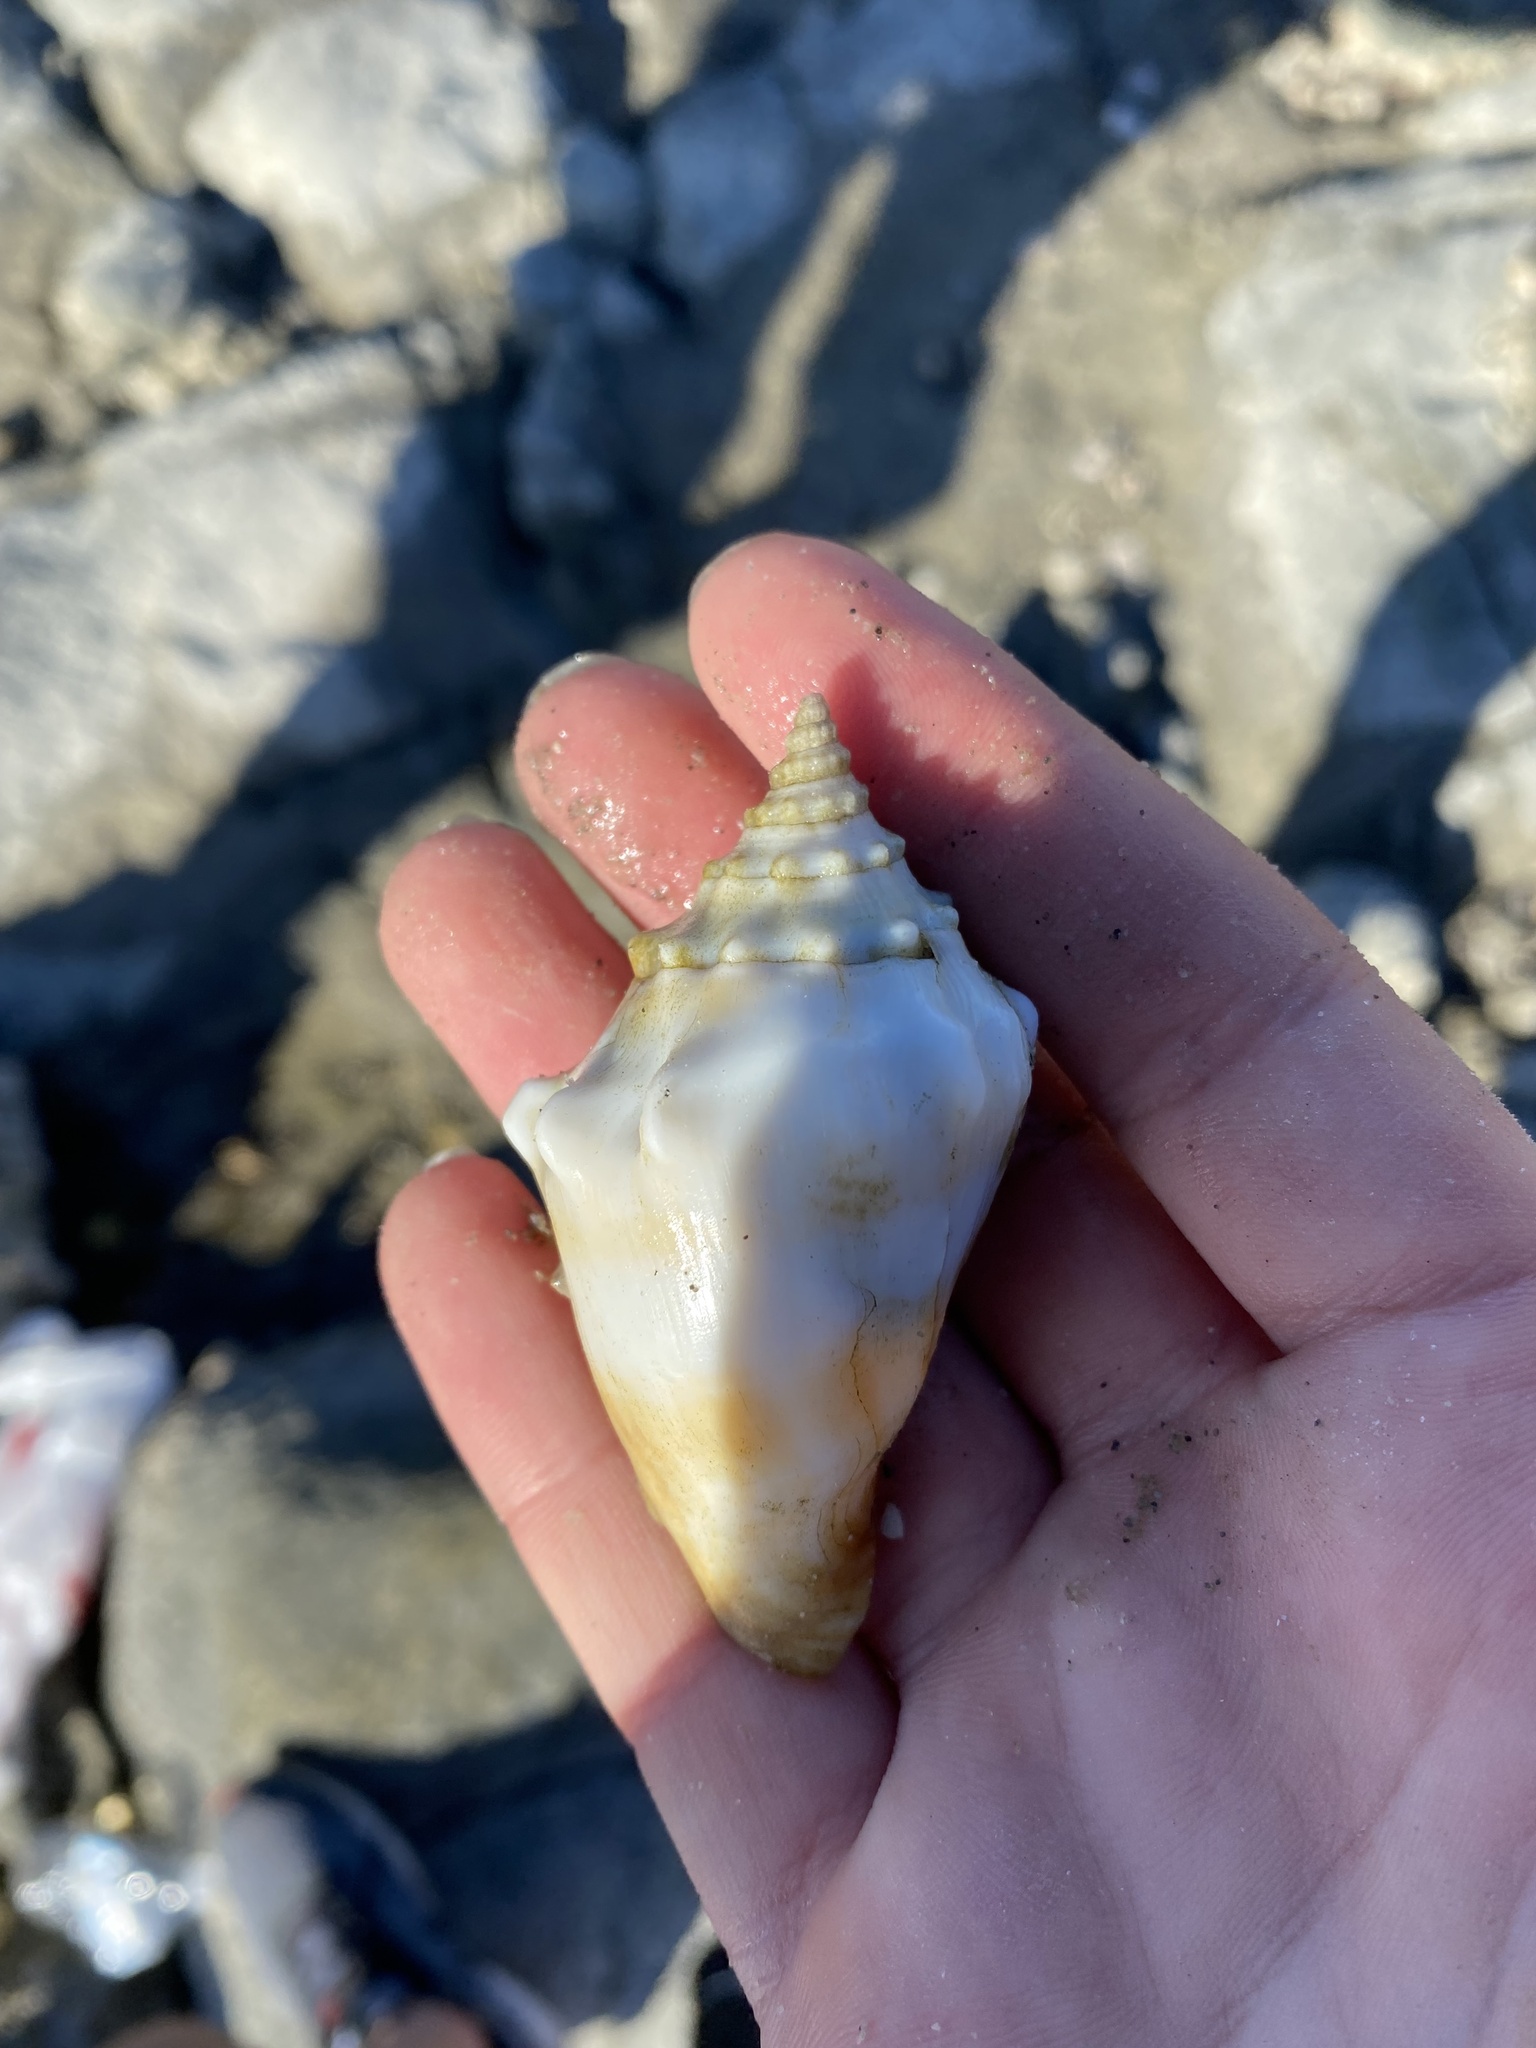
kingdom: Animalia
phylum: Mollusca
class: Gastropoda
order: Littorinimorpha
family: Strombidae
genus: Strombus
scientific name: Strombus gracilior
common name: Eastern pacific fighting conch
